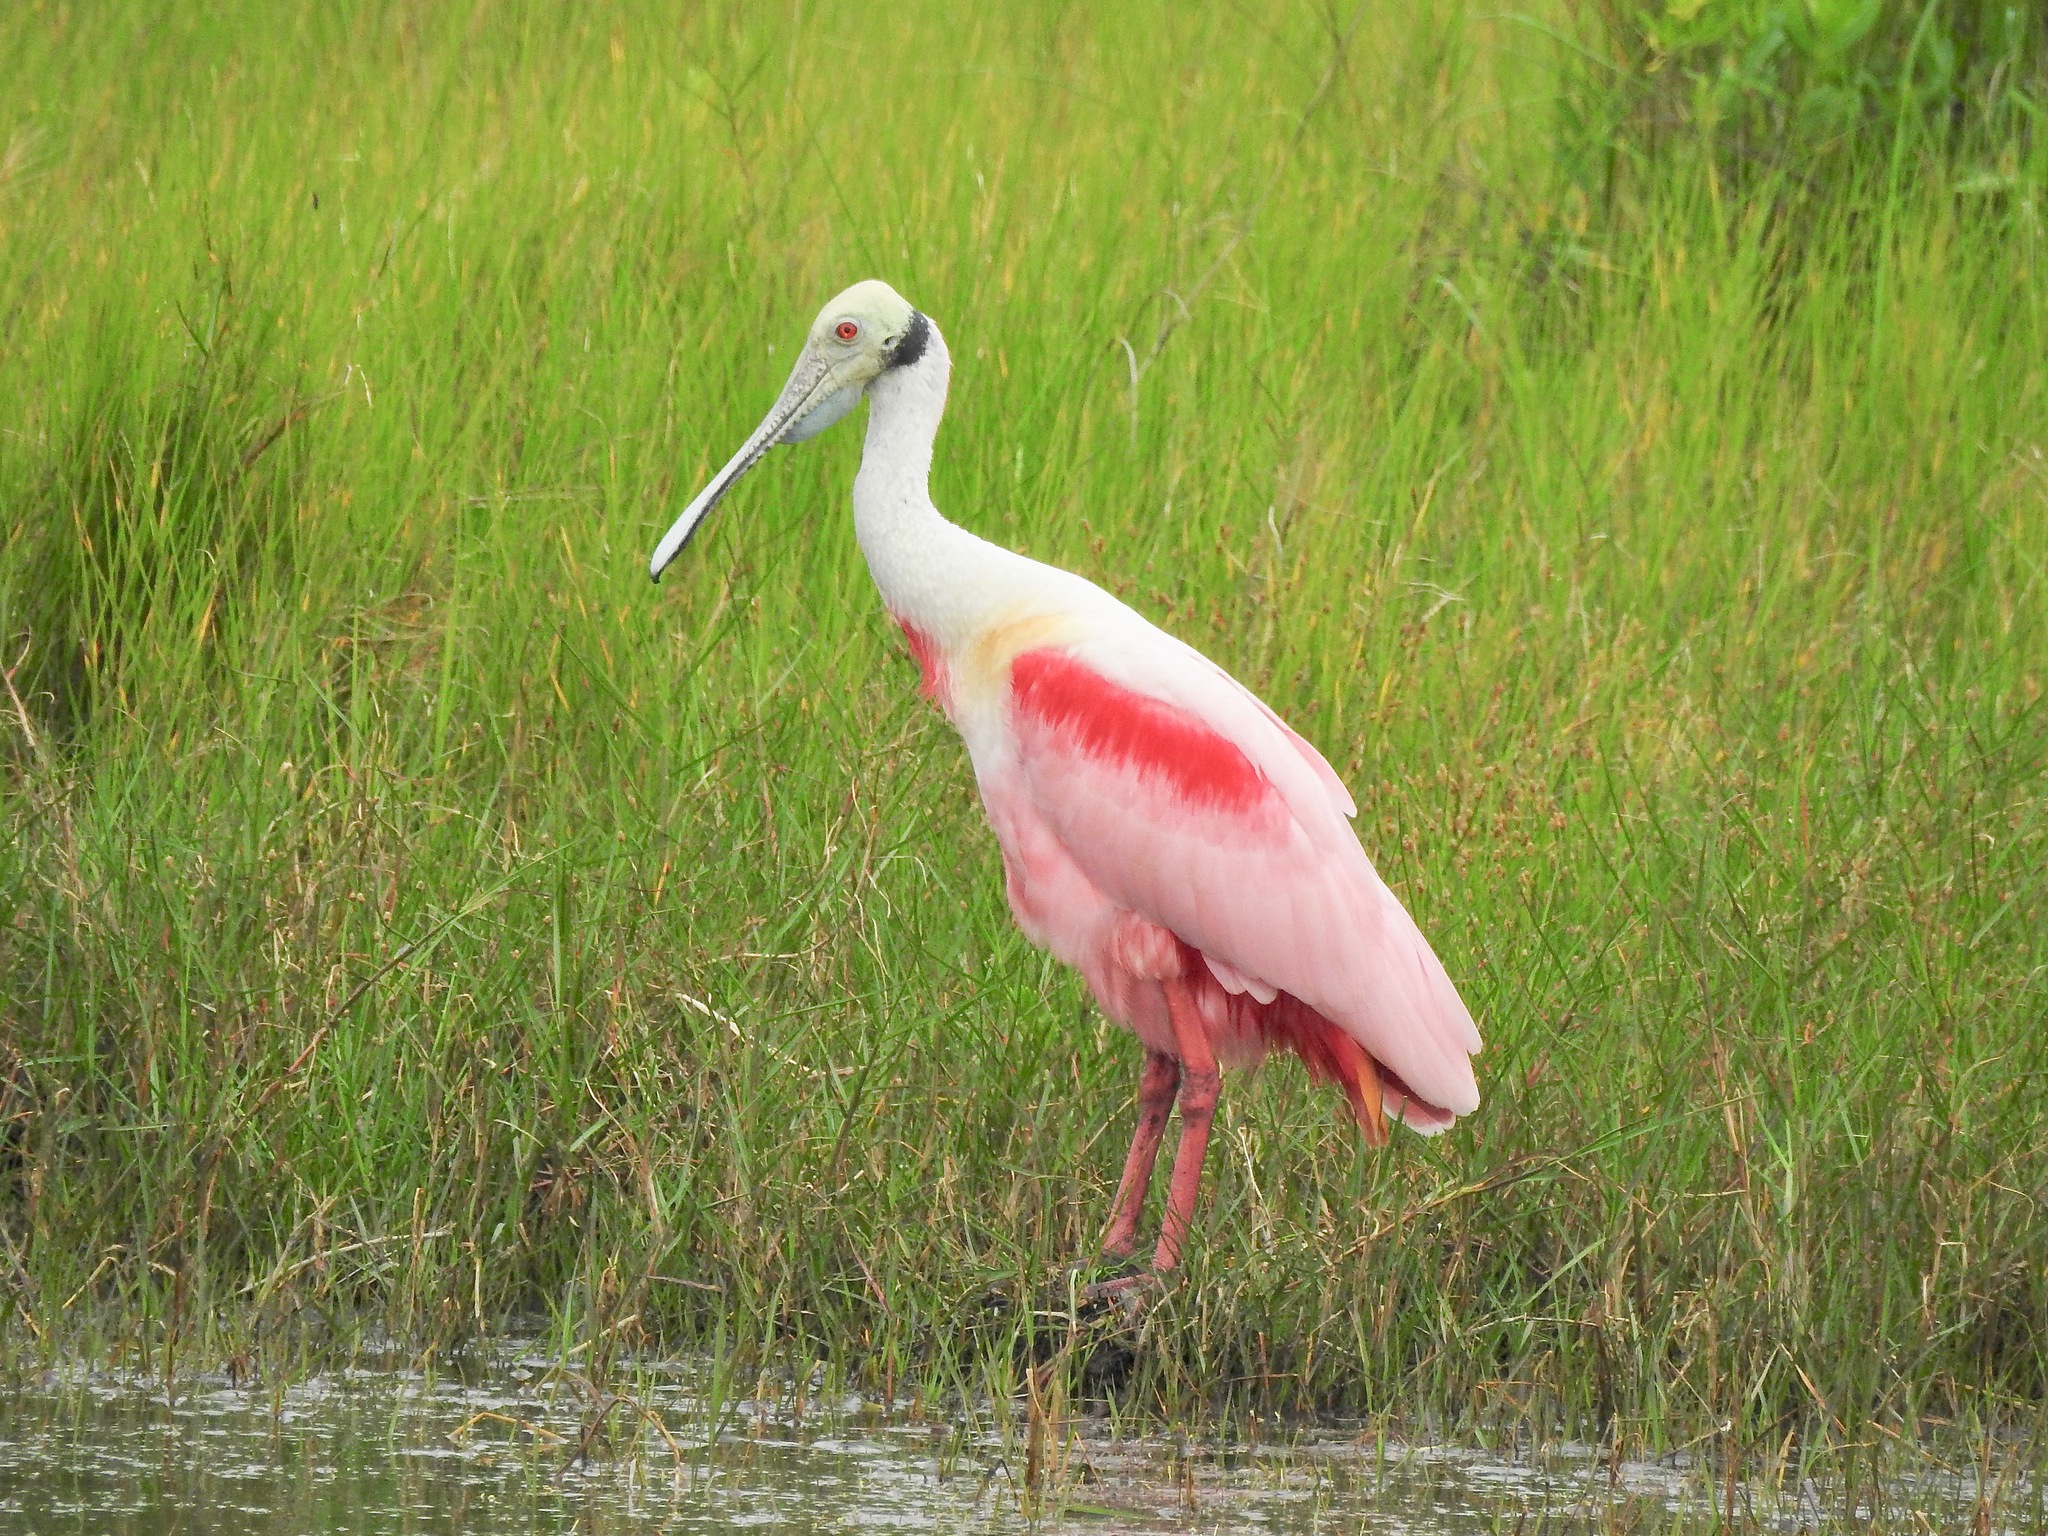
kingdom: Animalia
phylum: Chordata
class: Aves
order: Pelecaniformes
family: Threskiornithidae
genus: Platalea
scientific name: Platalea ajaja
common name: Roseate spoonbill
